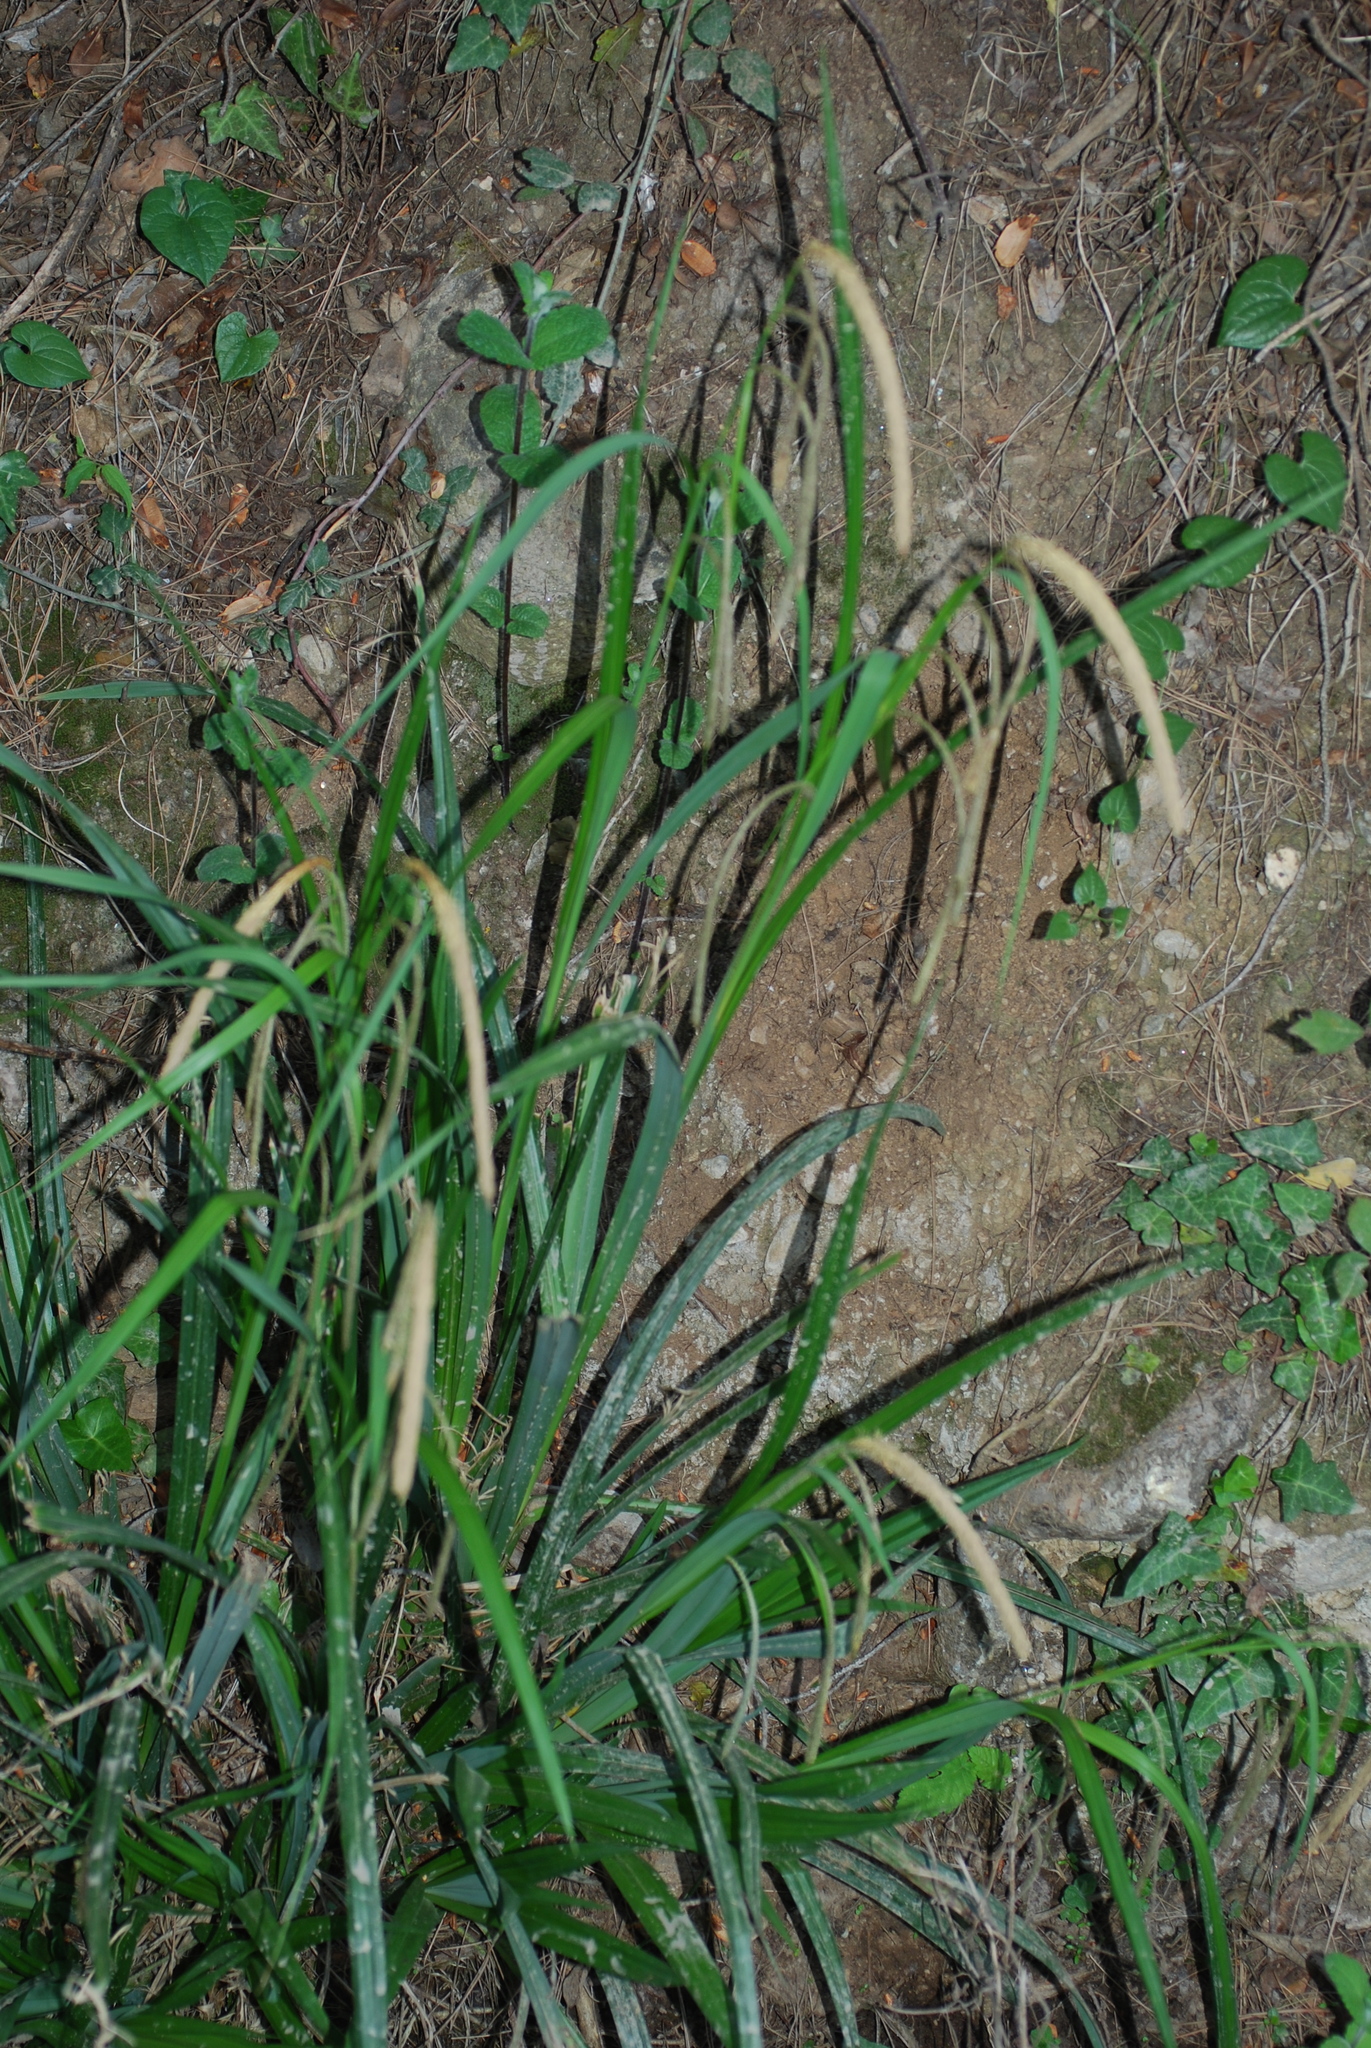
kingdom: Plantae
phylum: Tracheophyta
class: Liliopsida
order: Poales
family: Cyperaceae
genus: Carex
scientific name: Carex pendula
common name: Pendulous sedge
